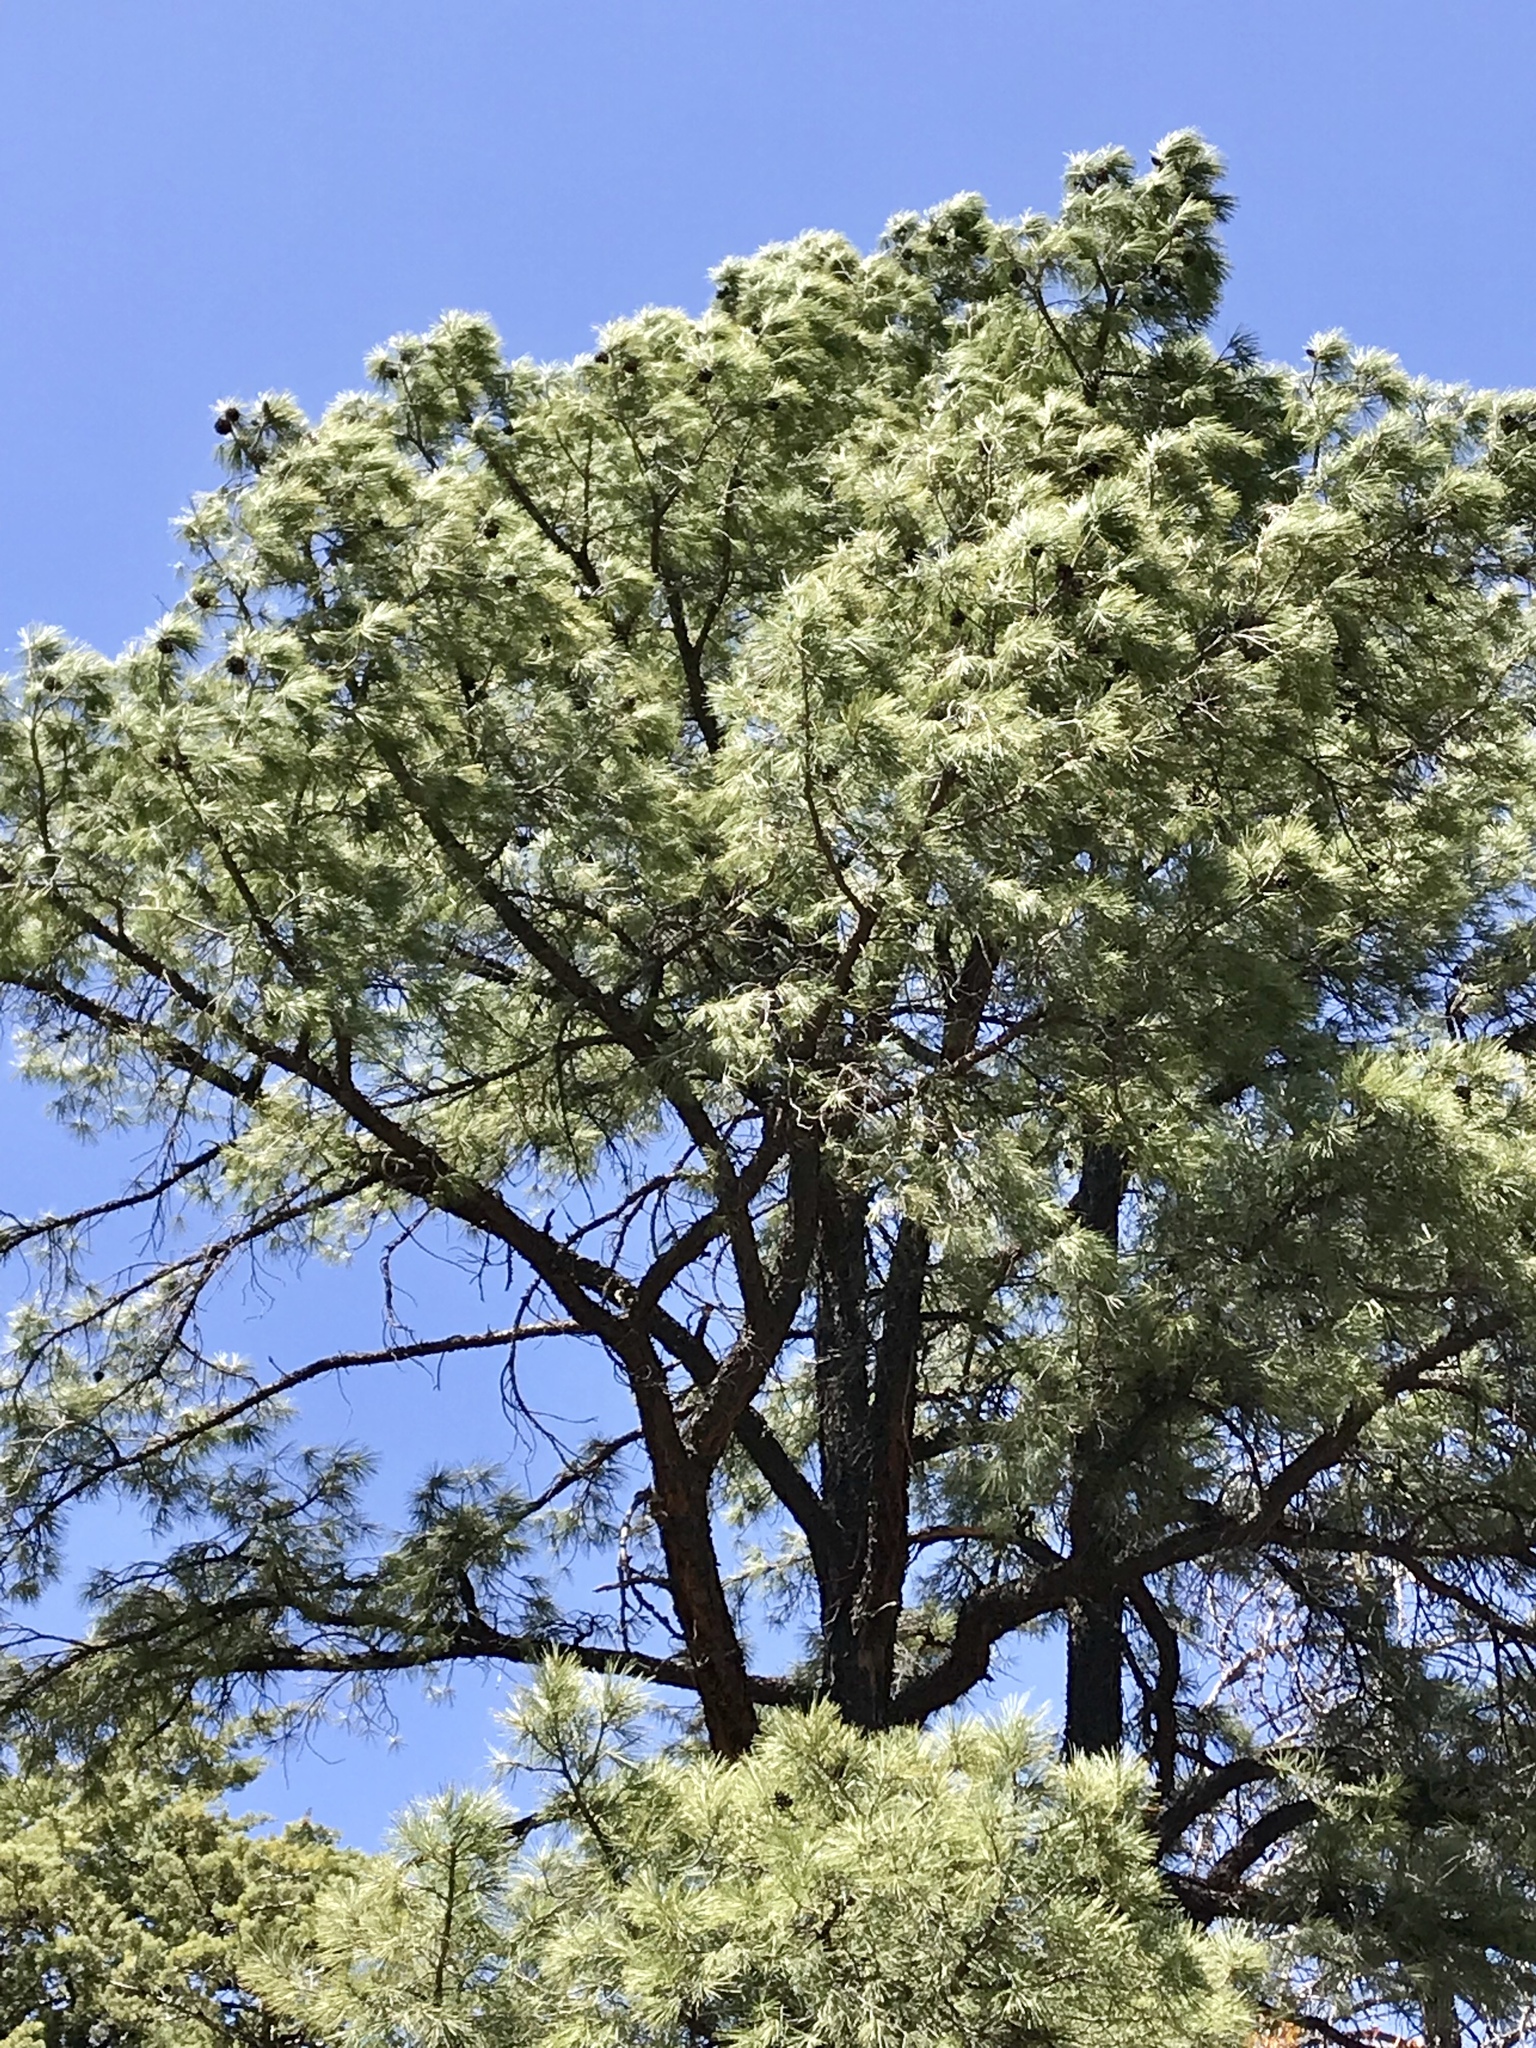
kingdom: Plantae
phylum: Tracheophyta
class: Pinopsida
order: Pinales
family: Pinaceae
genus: Pinus
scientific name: Pinus leiophylla
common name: Chihuahua pine
